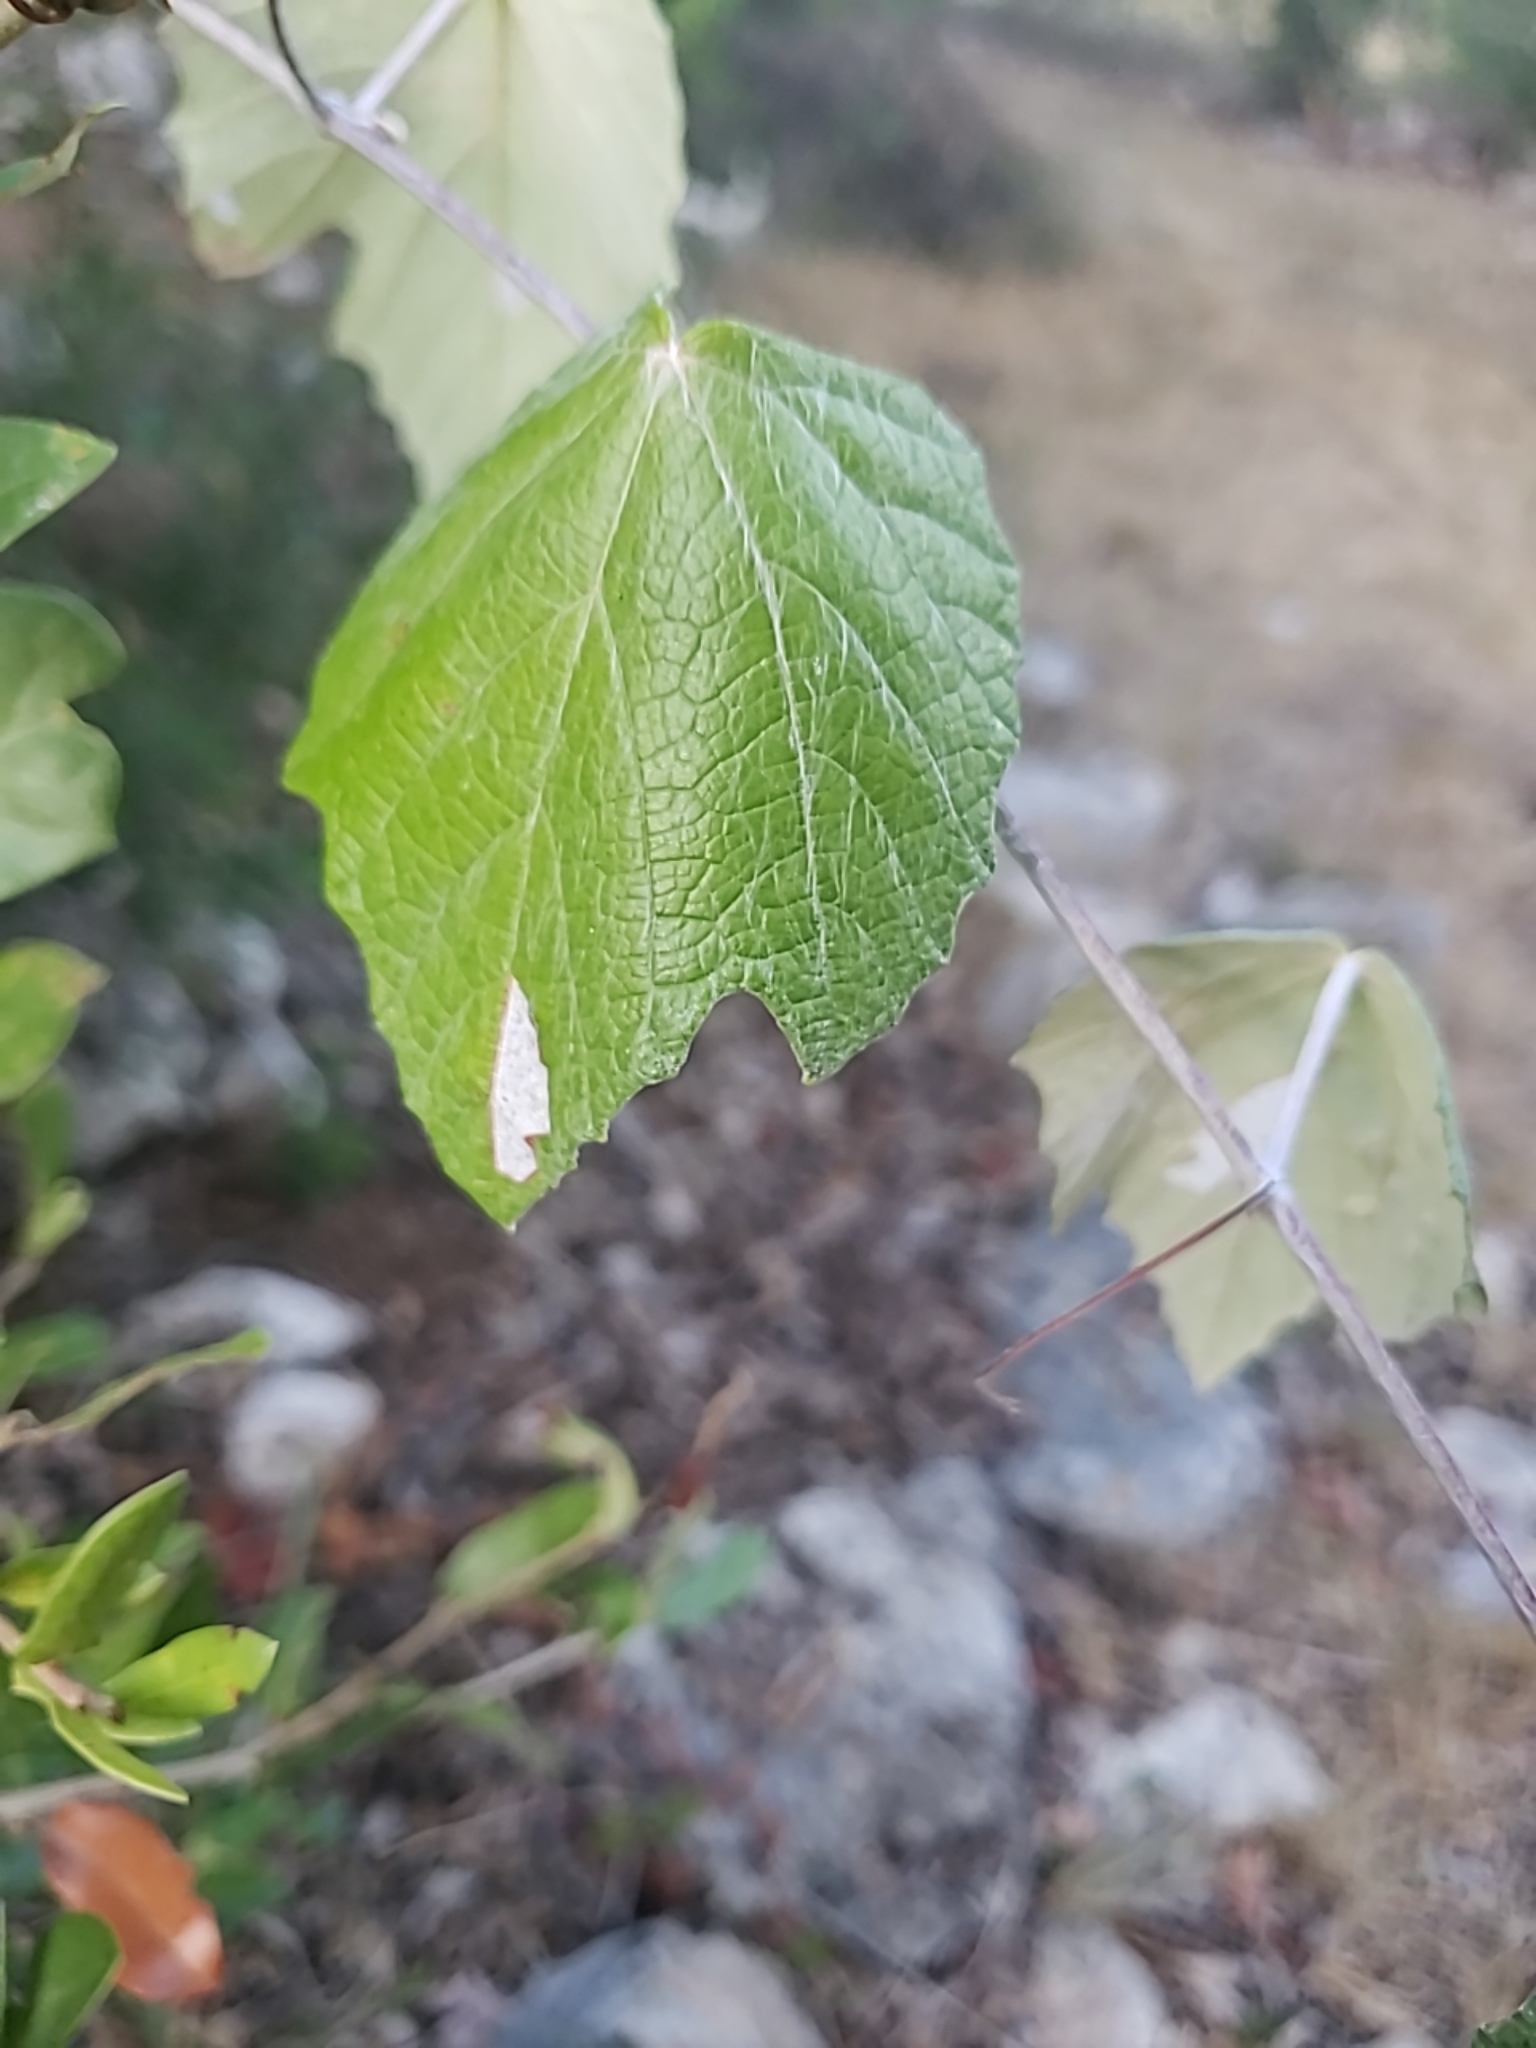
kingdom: Plantae
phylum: Tracheophyta
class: Magnoliopsida
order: Vitales
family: Vitaceae
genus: Vitis
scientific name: Vitis mustangensis
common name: Mustang grape
